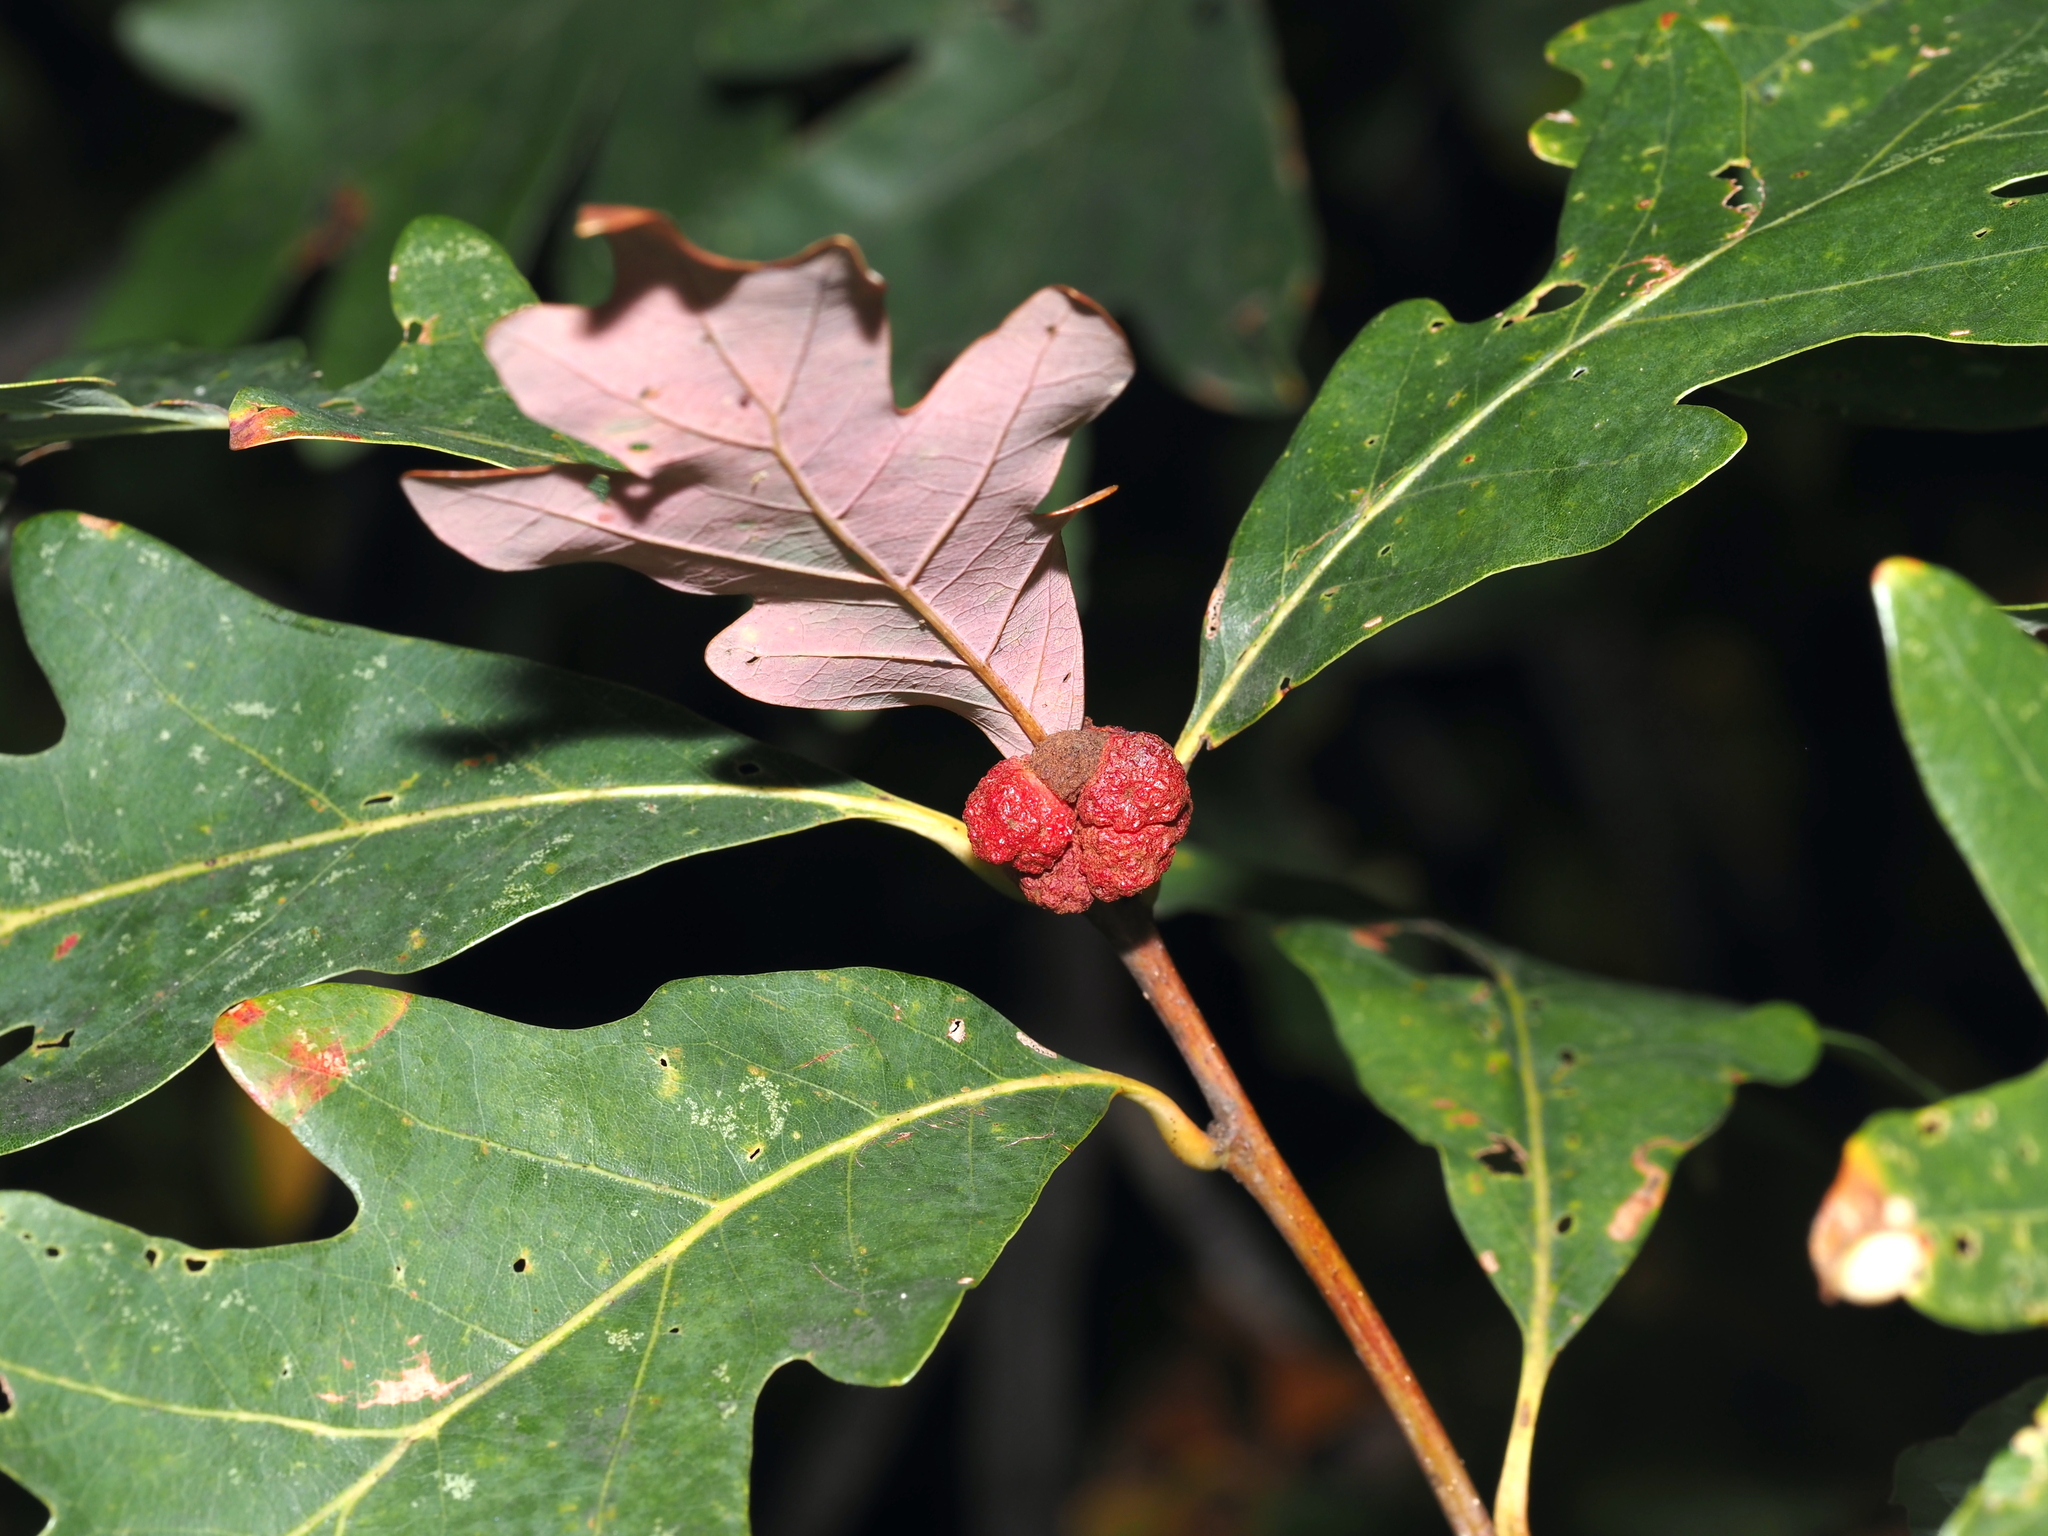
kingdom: Animalia
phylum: Arthropoda
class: Insecta
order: Hymenoptera
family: Cynipidae
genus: Andricus
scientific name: Andricus
